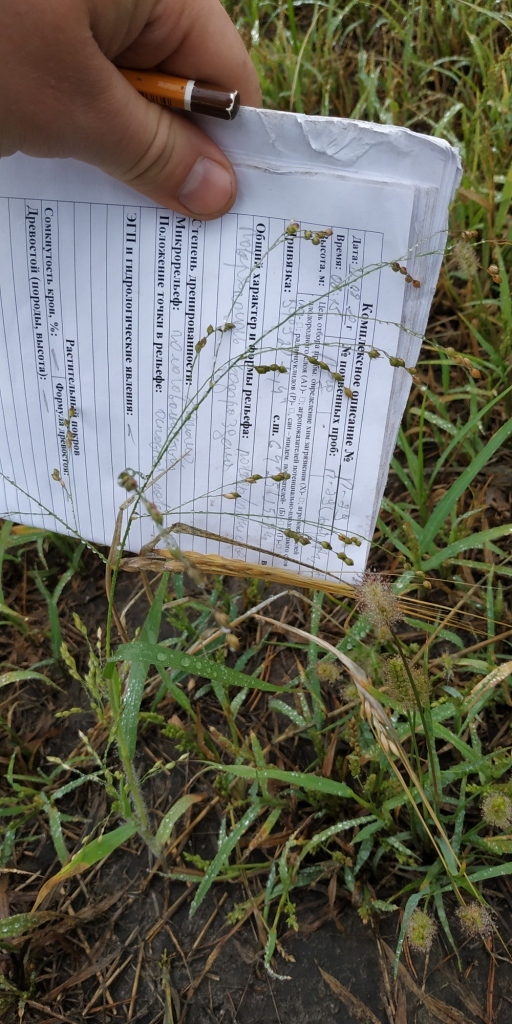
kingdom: Plantae
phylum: Tracheophyta
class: Liliopsida
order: Poales
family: Poaceae
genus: Panicum
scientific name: Panicum miliaceum
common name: Common millet
